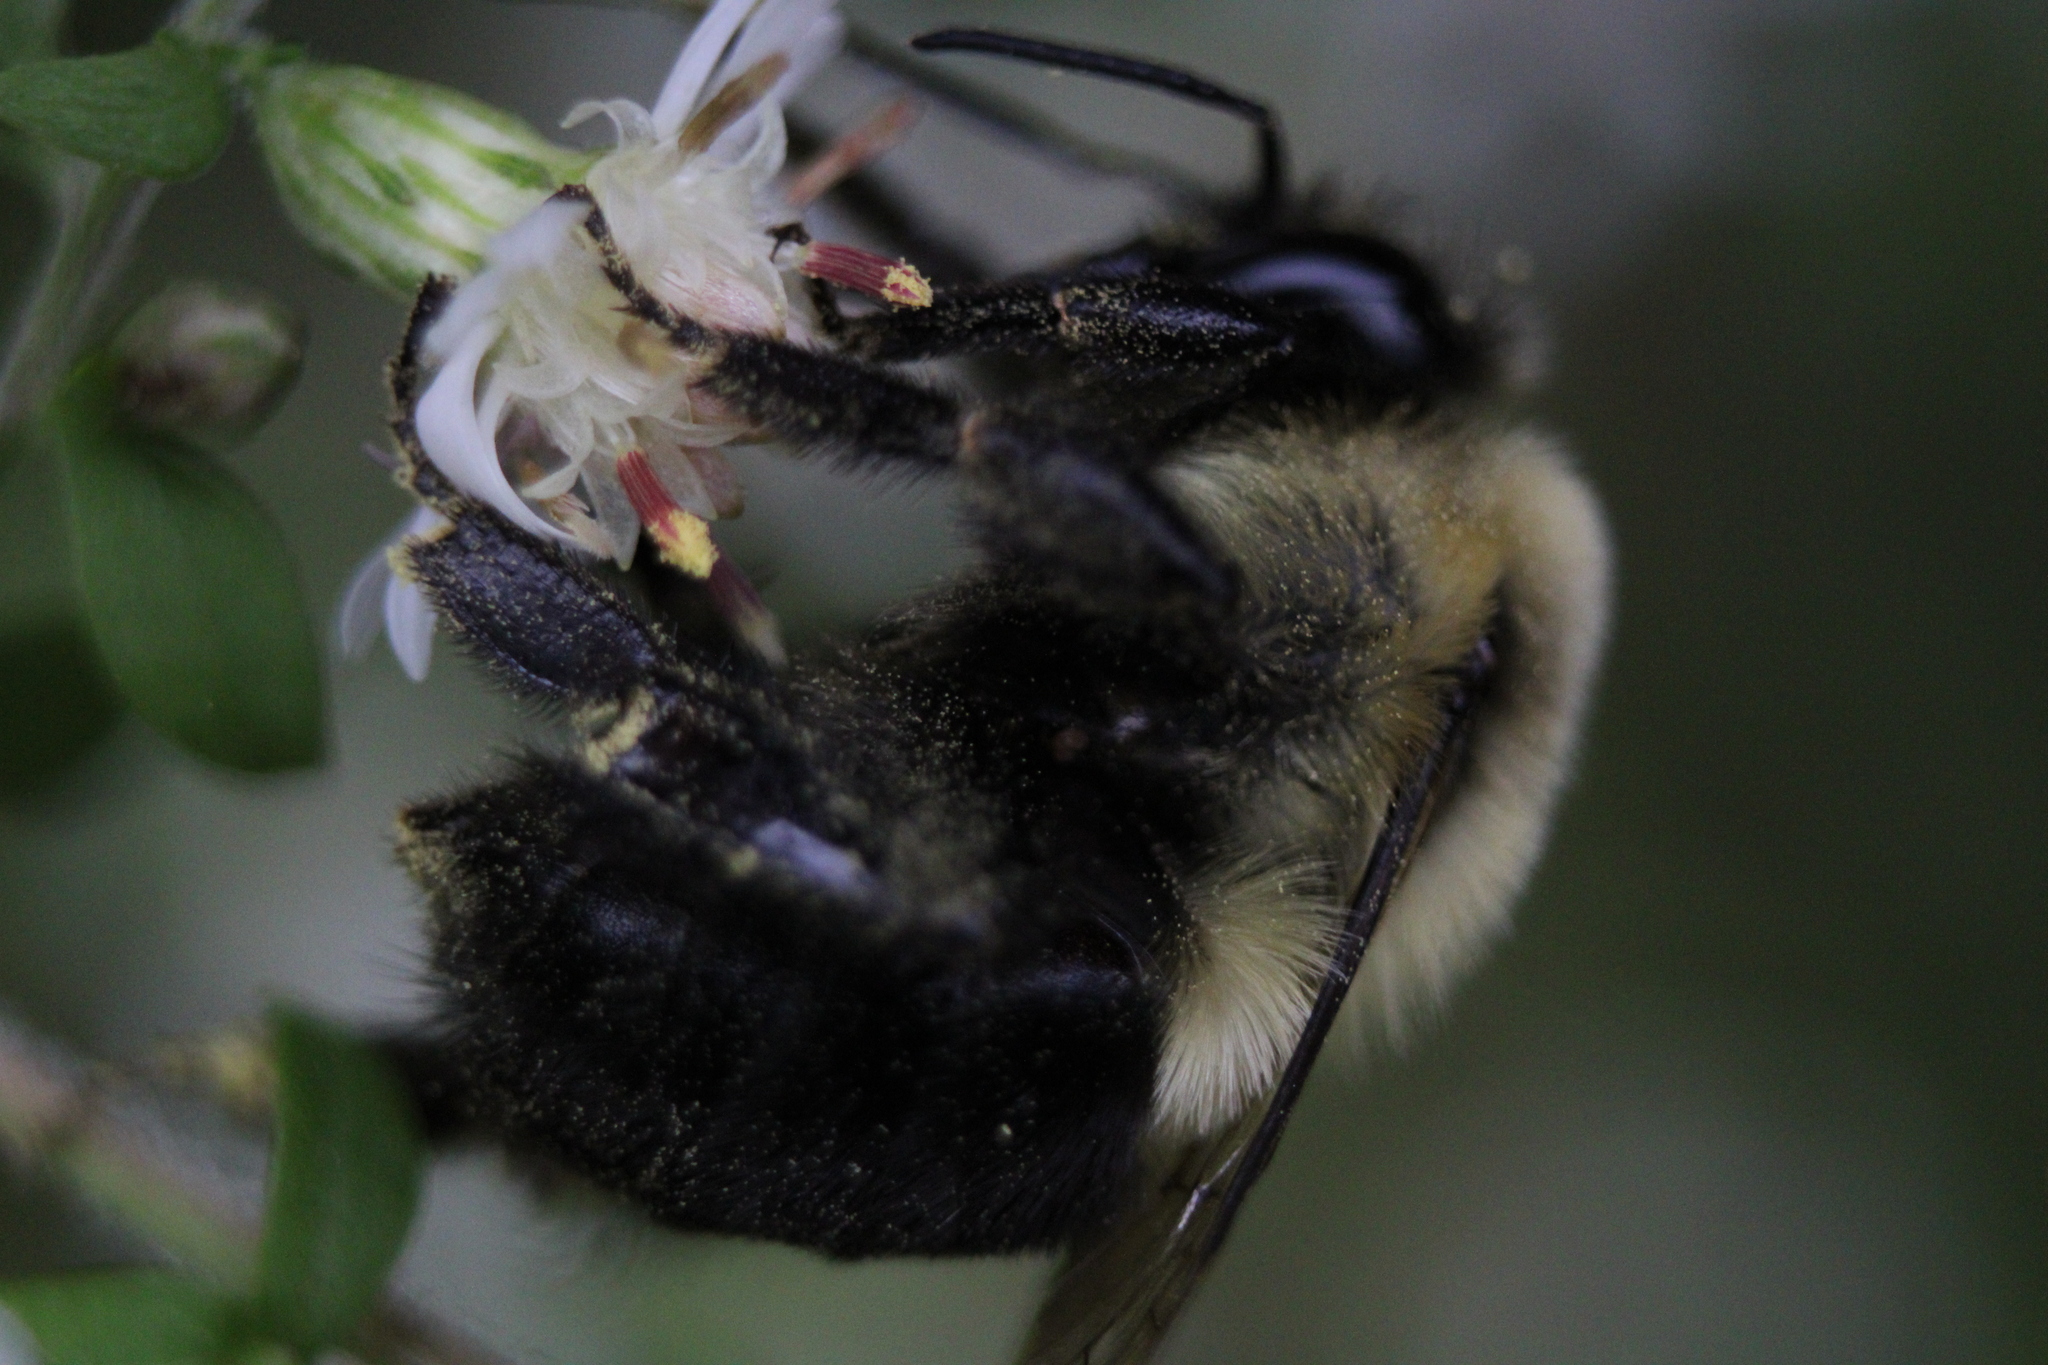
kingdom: Animalia
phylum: Arthropoda
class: Insecta
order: Hymenoptera
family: Apidae
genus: Bombus
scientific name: Bombus impatiens
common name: Common eastern bumble bee
